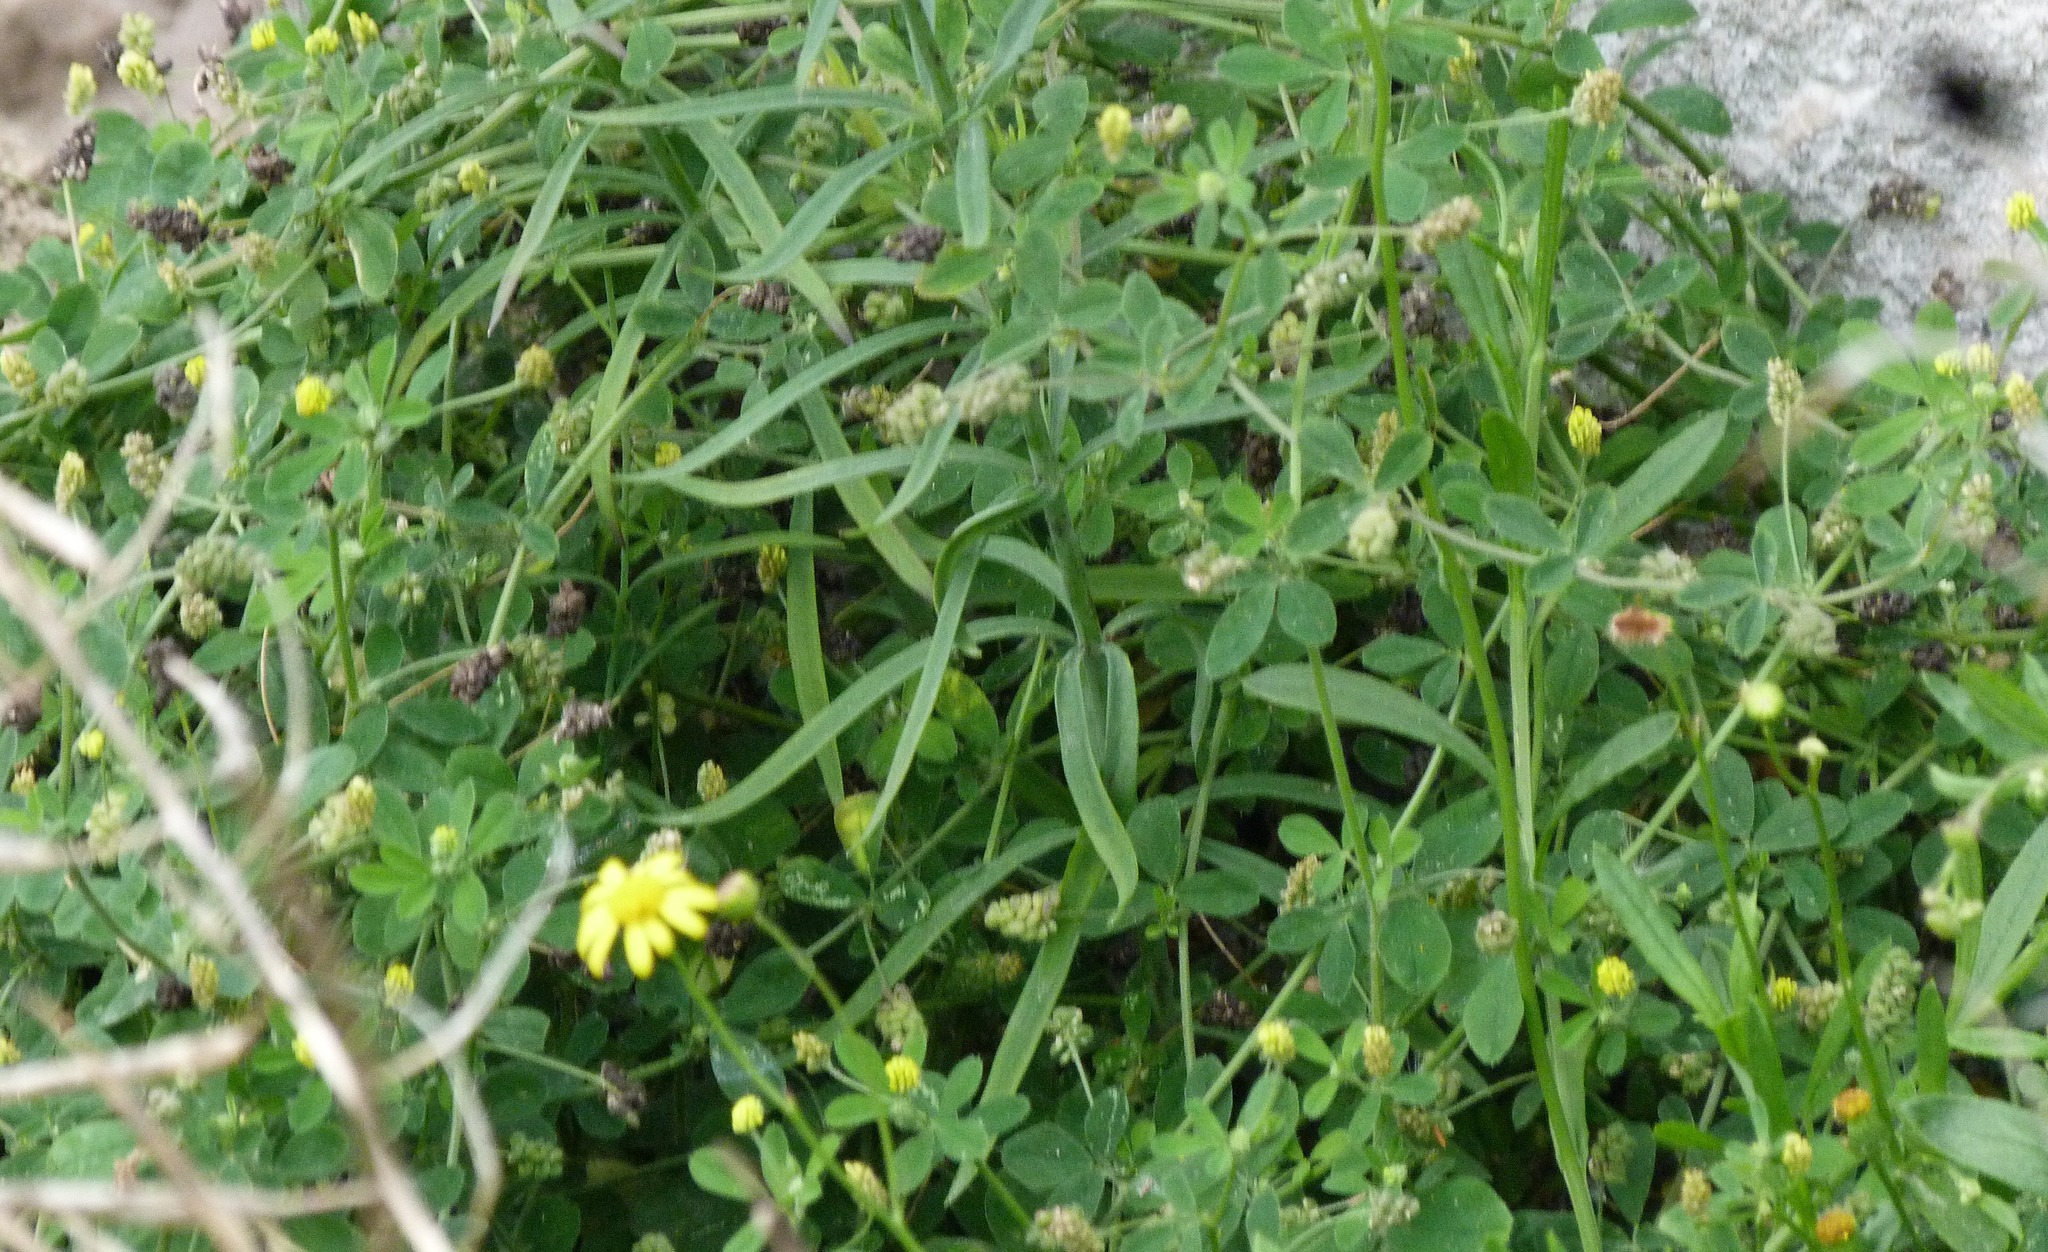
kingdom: Plantae
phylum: Tracheophyta
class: Magnoliopsida
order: Fabales
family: Fabaceae
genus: Medicago
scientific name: Medicago lupulina
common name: Black medick
